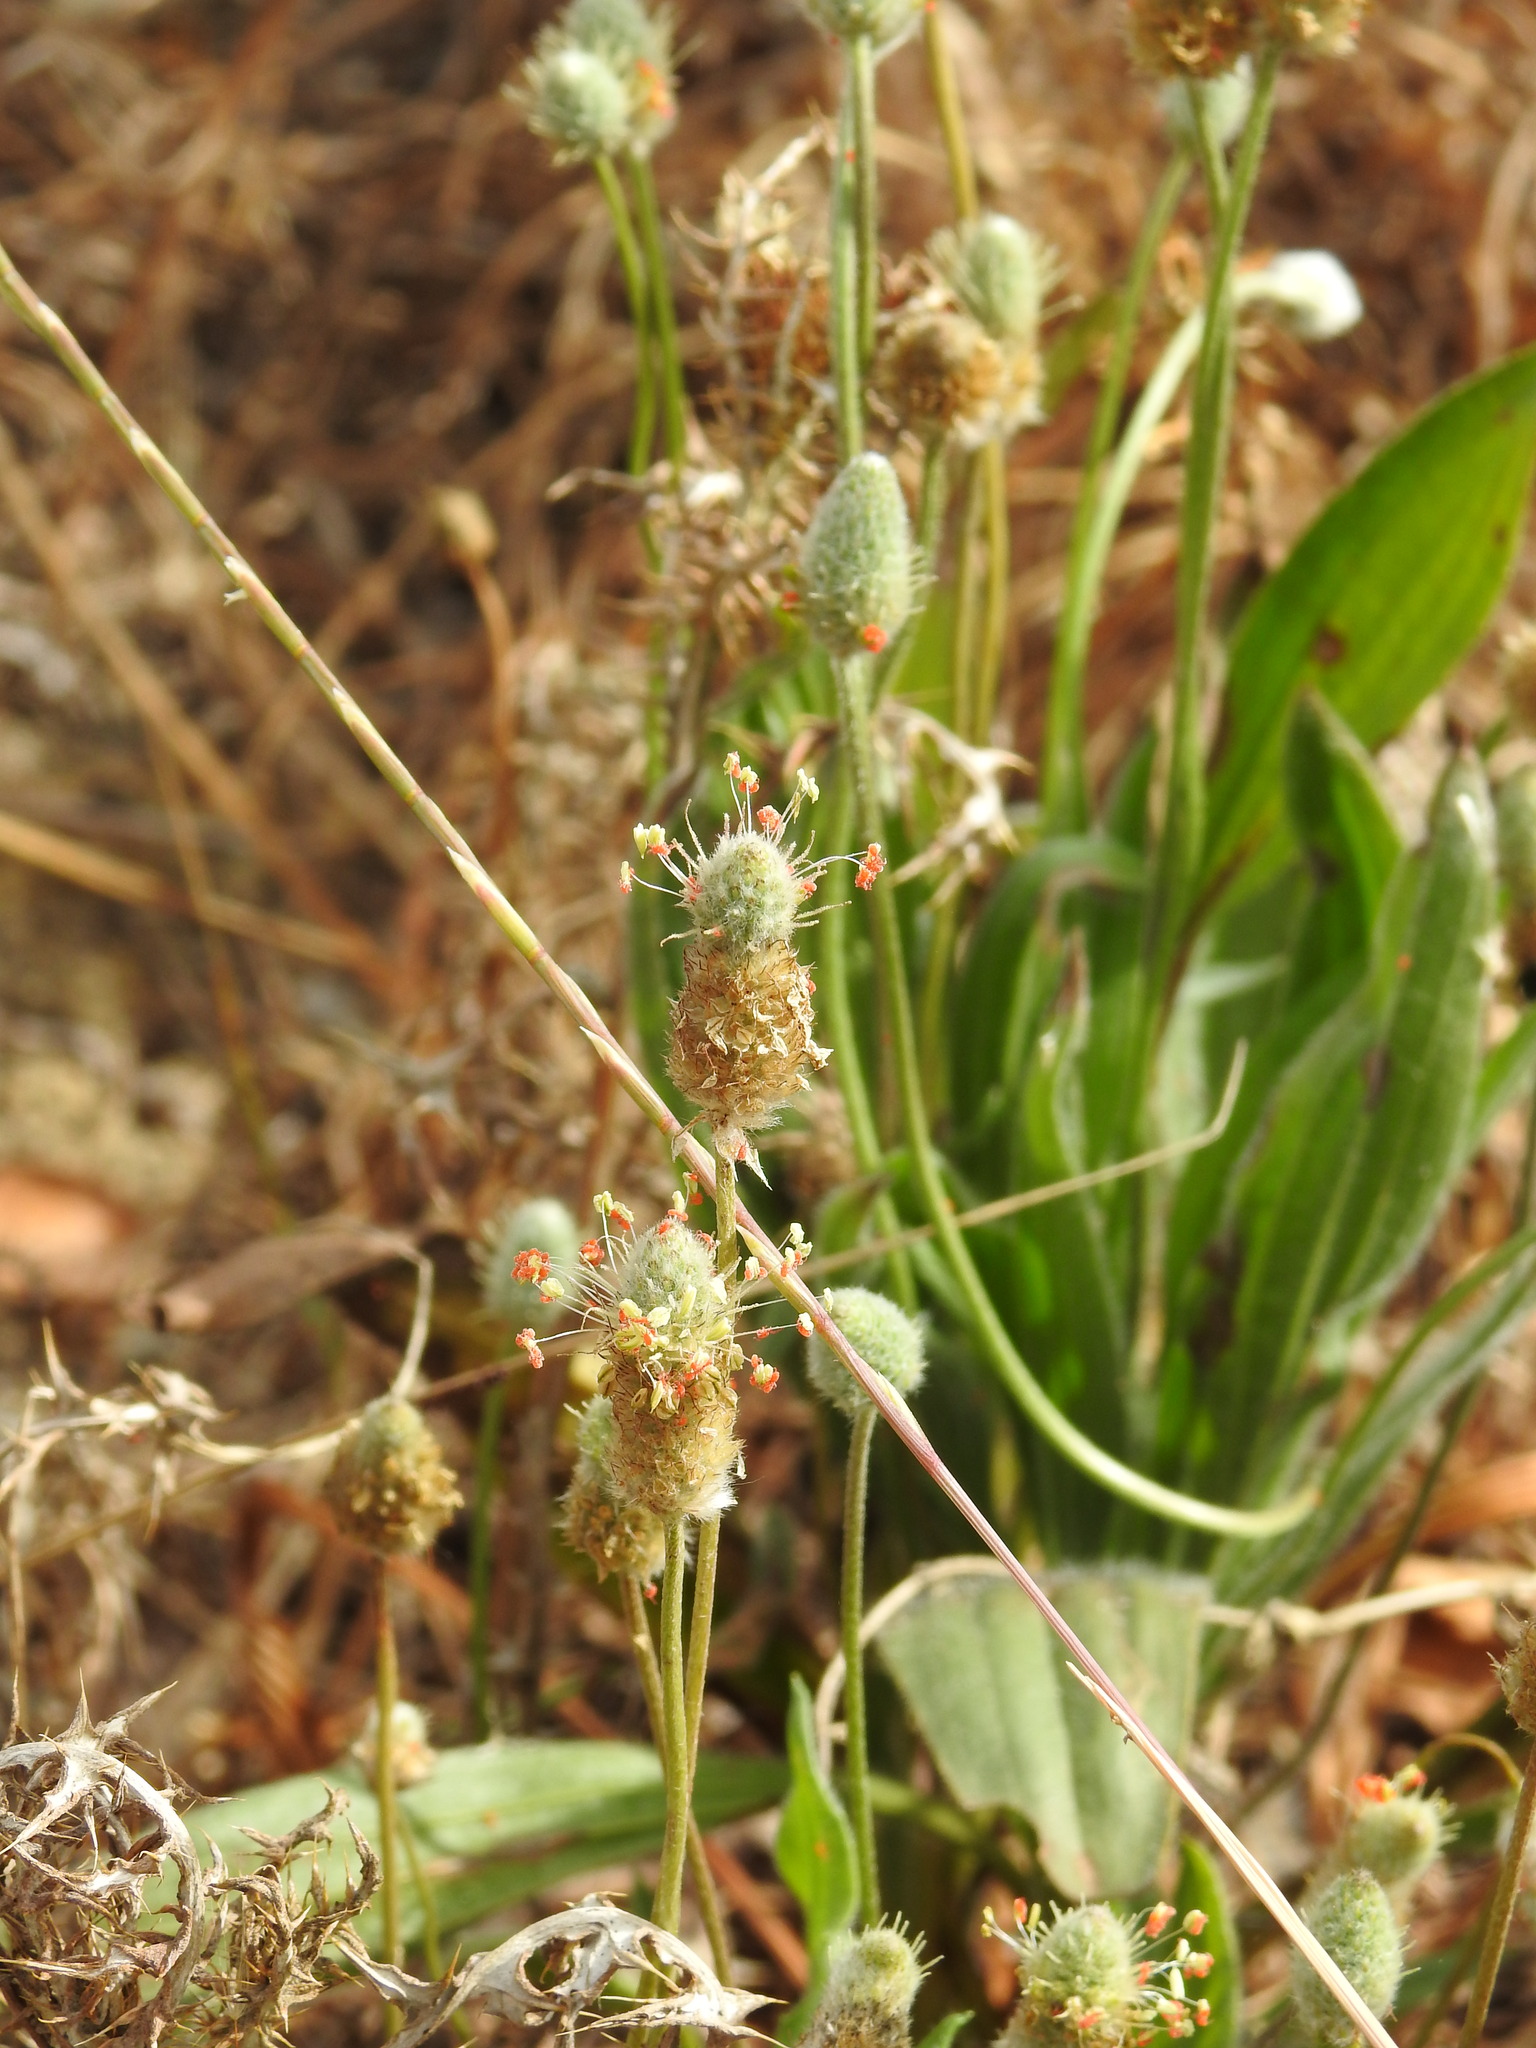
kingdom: Plantae
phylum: Tracheophyta
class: Magnoliopsida
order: Lamiales
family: Plantaginaceae
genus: Plantago
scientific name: Plantago lagopus
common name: Hare-foot plantain
